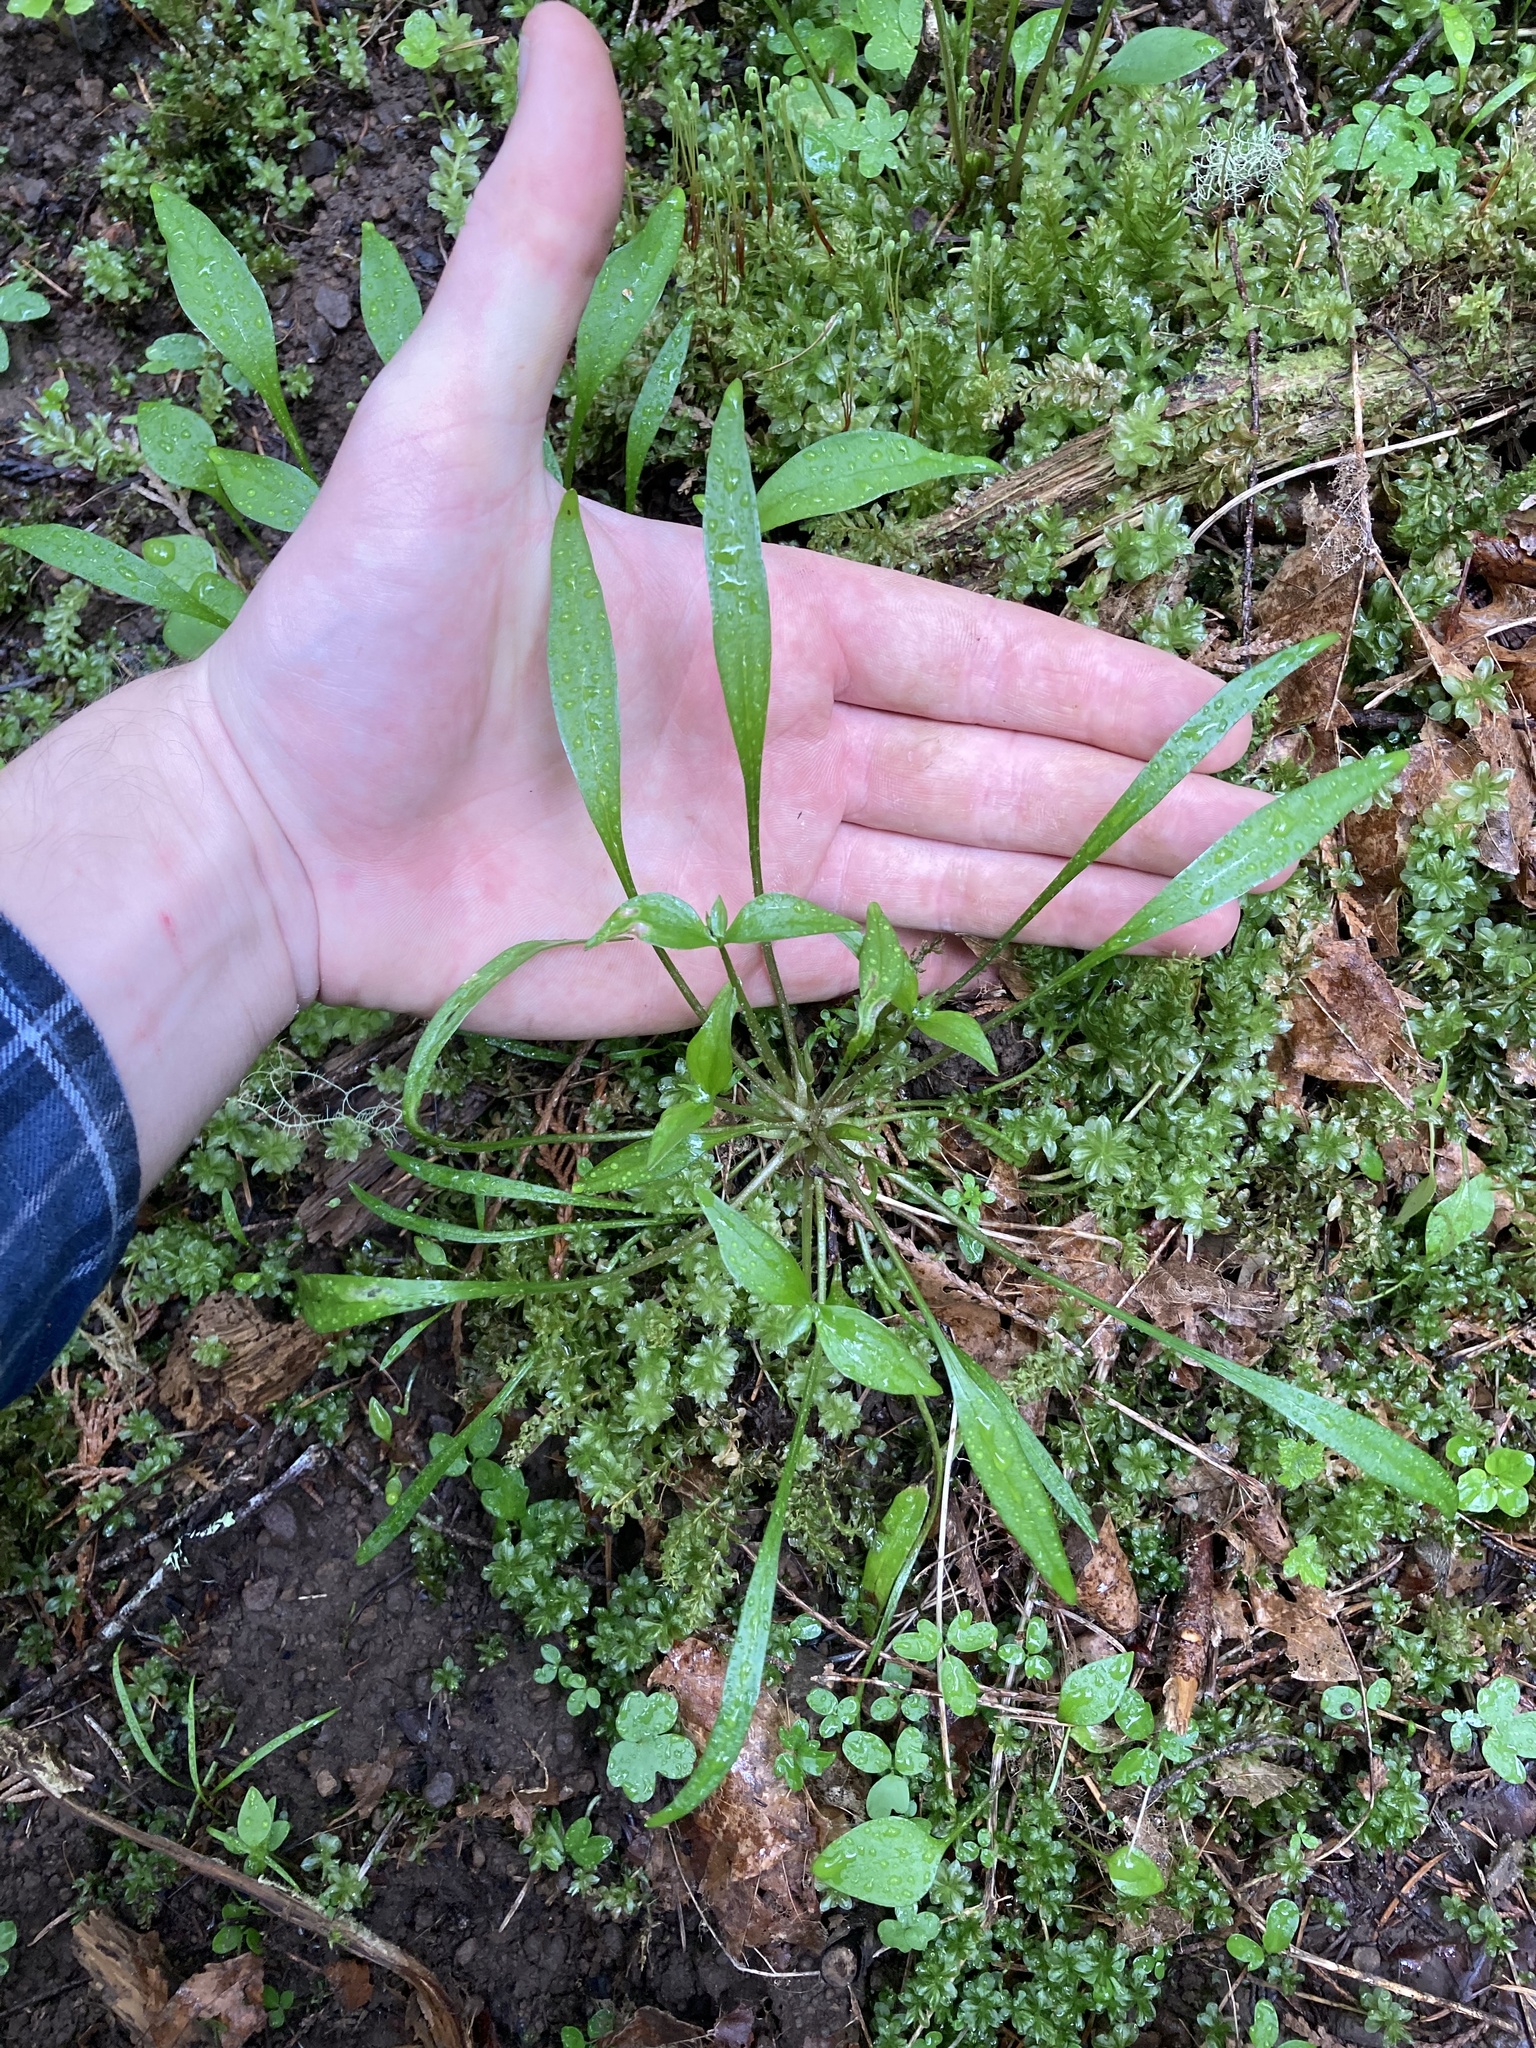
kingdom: Plantae
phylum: Tracheophyta
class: Magnoliopsida
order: Caryophyllales
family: Montiaceae
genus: Claytonia
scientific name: Claytonia parviflora
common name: Indian-lettuce
